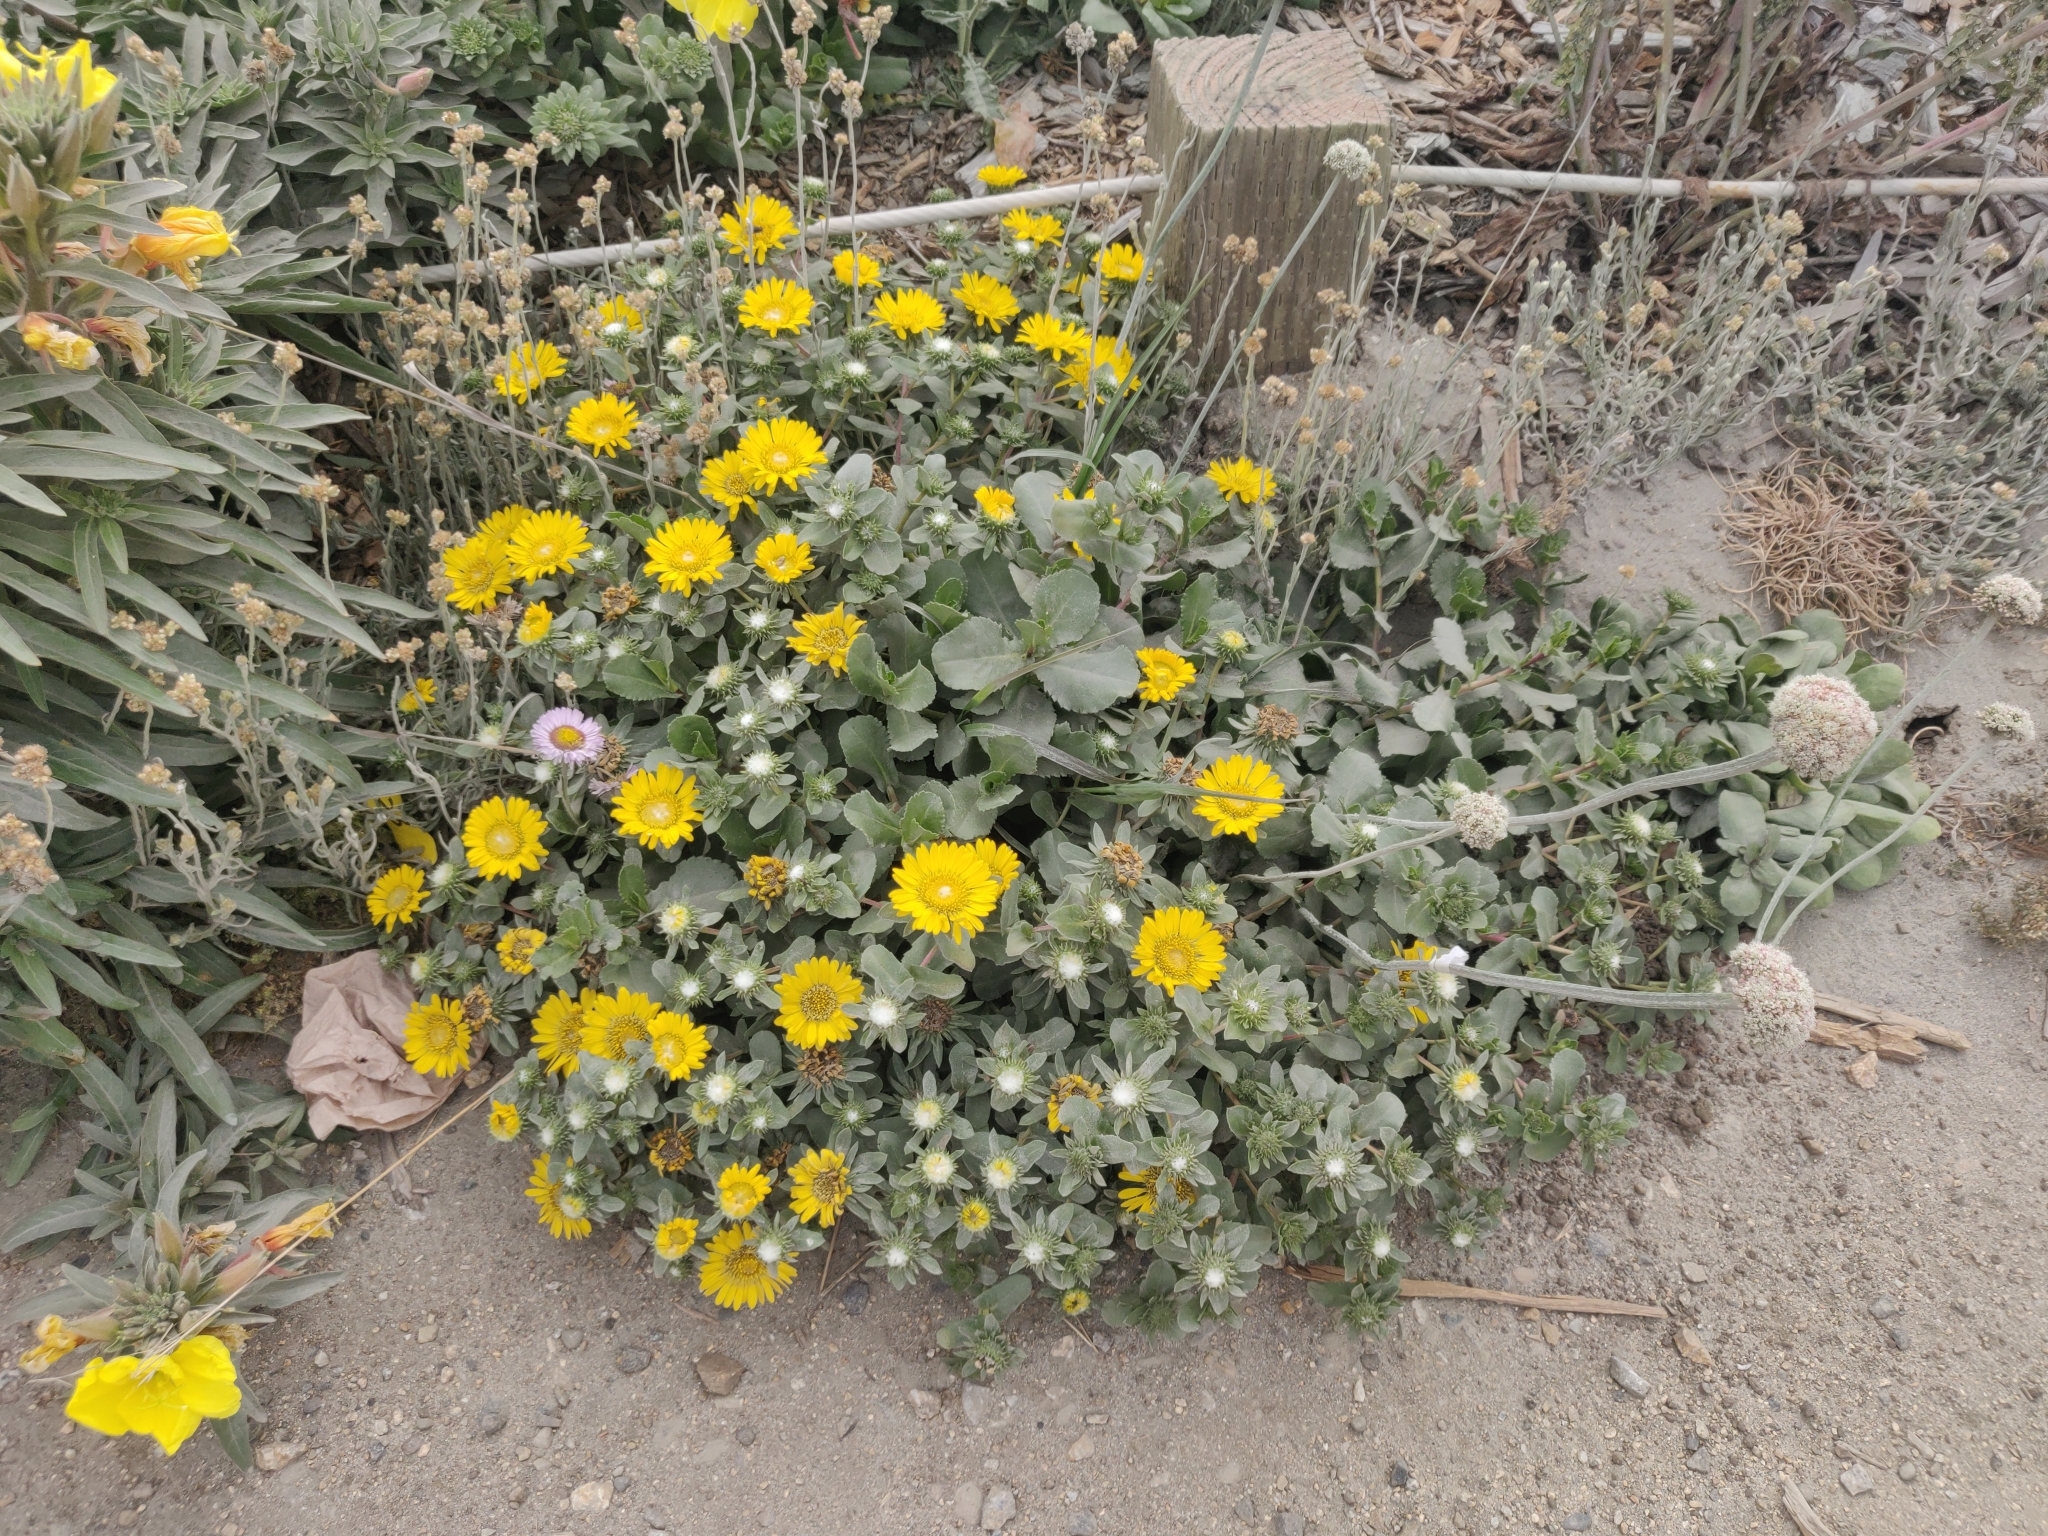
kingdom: Plantae
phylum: Tracheophyta
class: Magnoliopsida
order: Asterales
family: Asteraceae
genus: Erigeron
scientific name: Erigeron glaucus
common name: Seaside daisy
